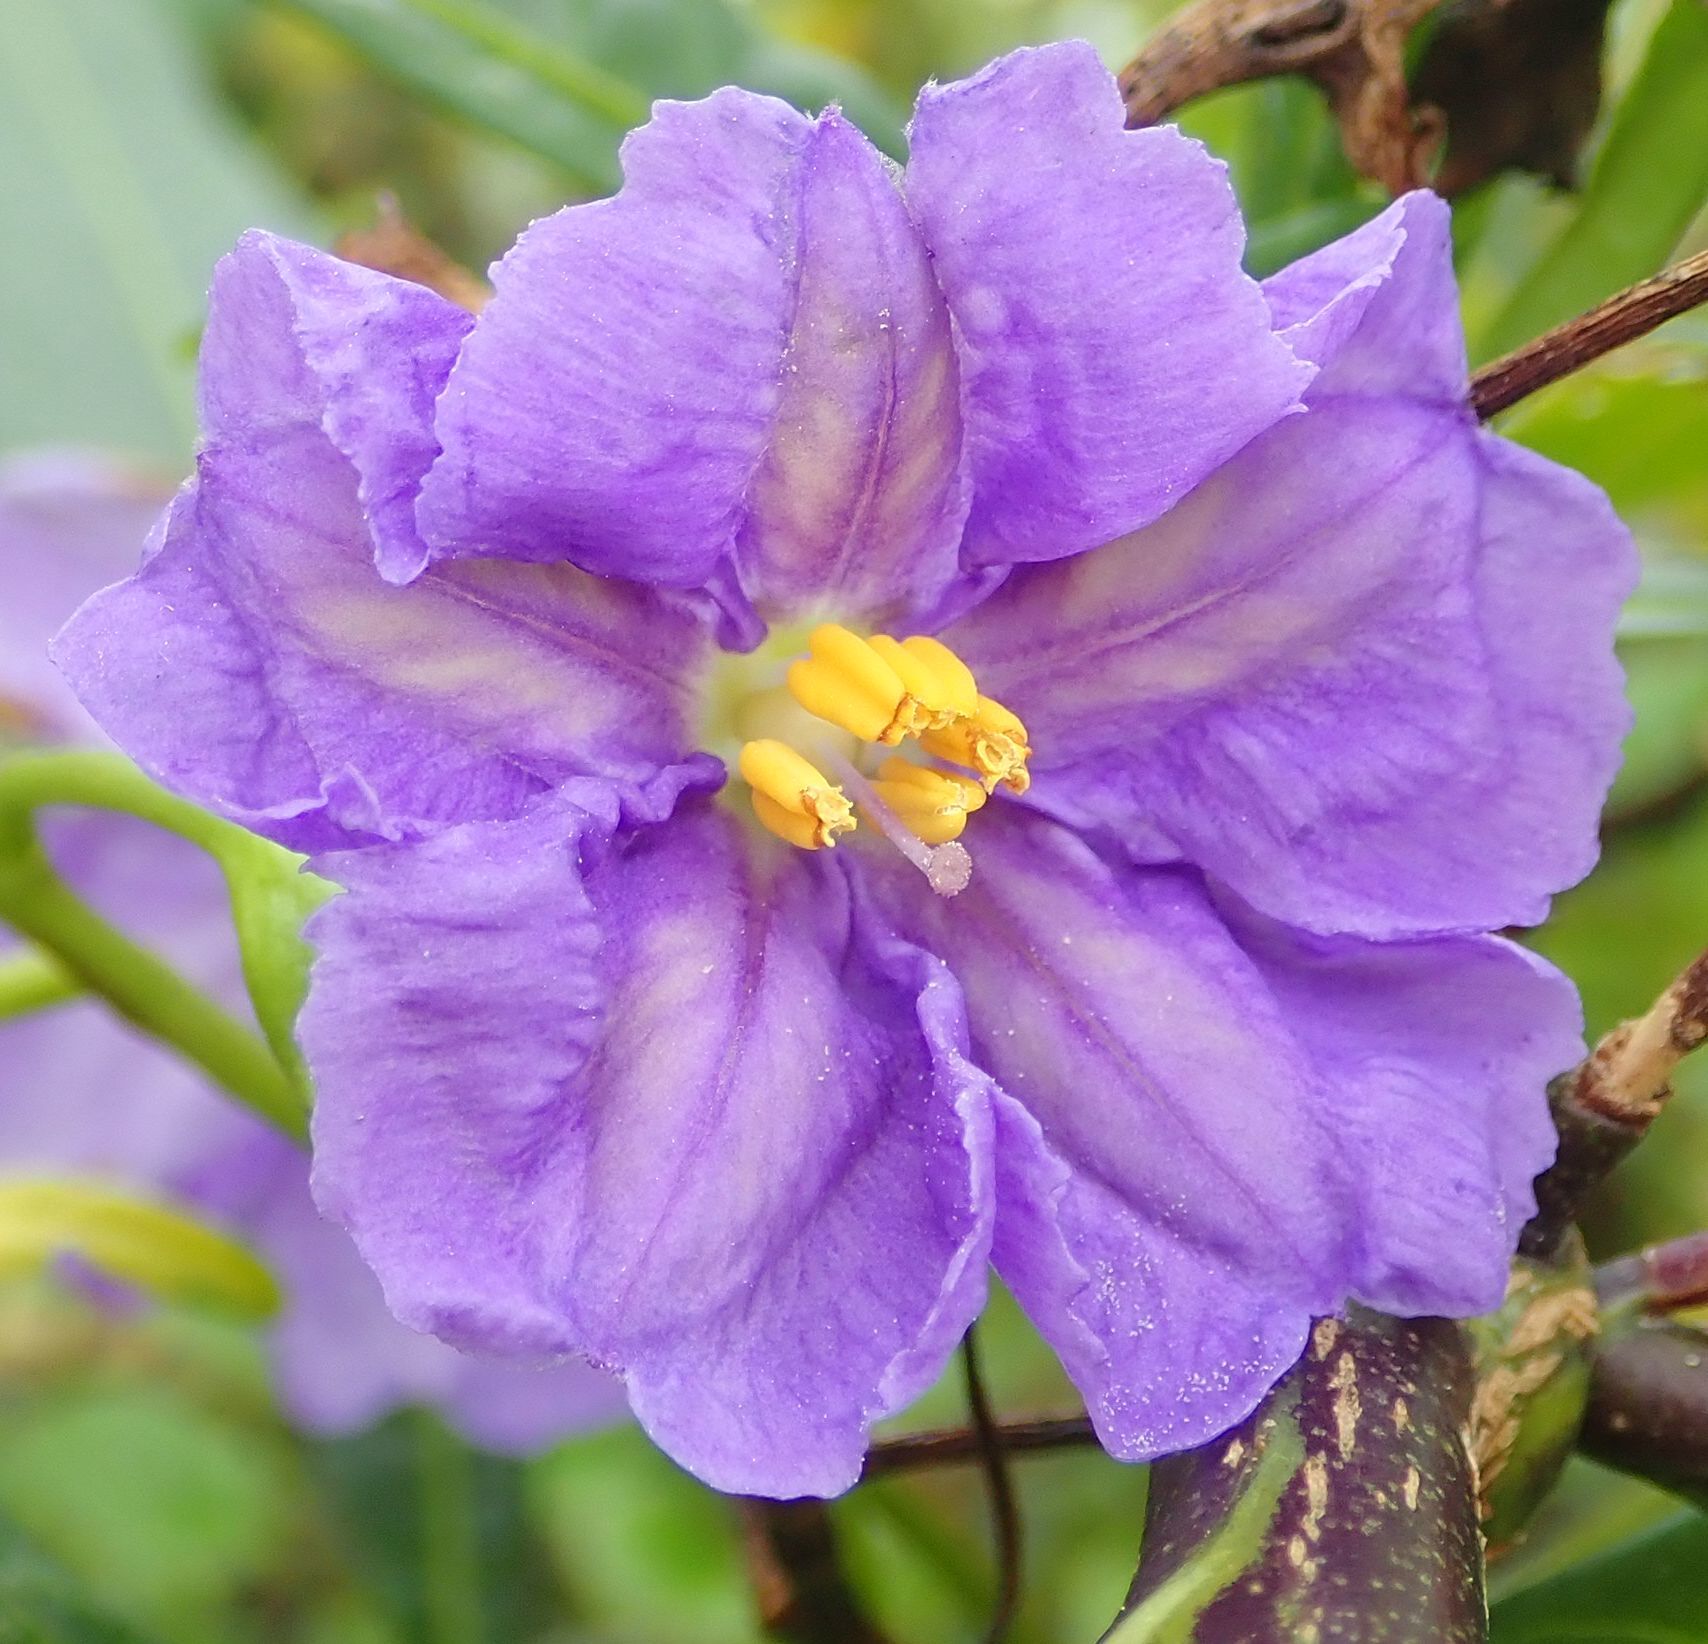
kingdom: Plantae
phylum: Tracheophyta
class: Magnoliopsida
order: Solanales
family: Solanaceae
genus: Solanum
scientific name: Solanum laciniatum
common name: Kangaroo-apple
